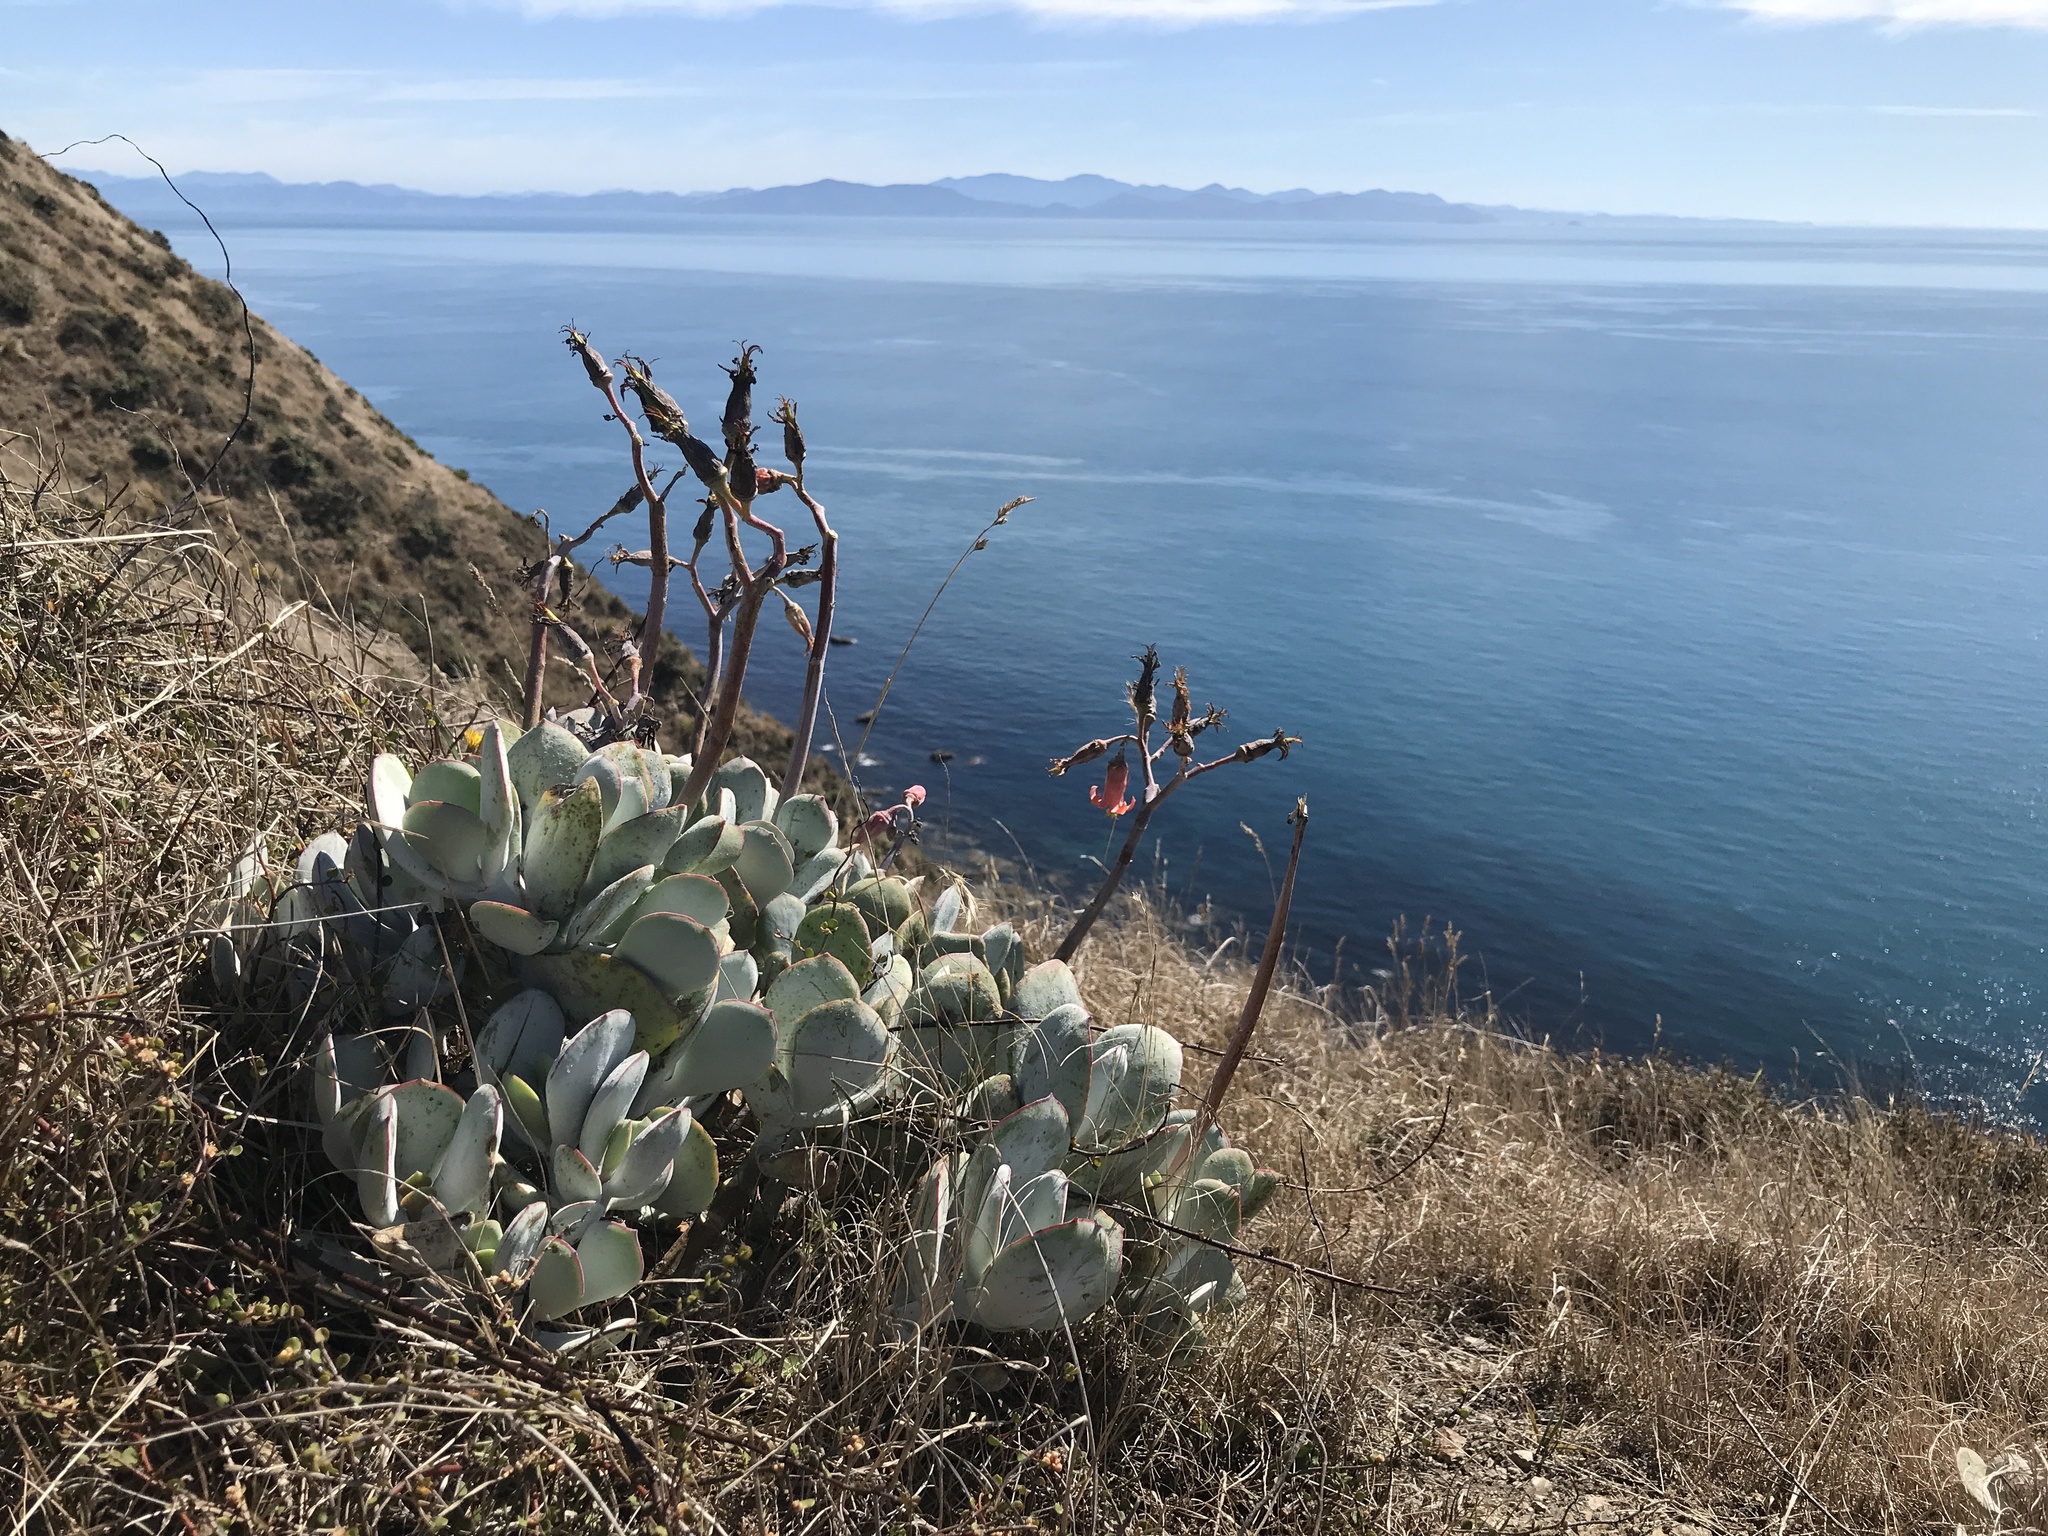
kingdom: Plantae
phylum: Tracheophyta
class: Magnoliopsida
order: Saxifragales
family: Crassulaceae
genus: Cotyledon
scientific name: Cotyledon orbiculata
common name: Pig's ear
